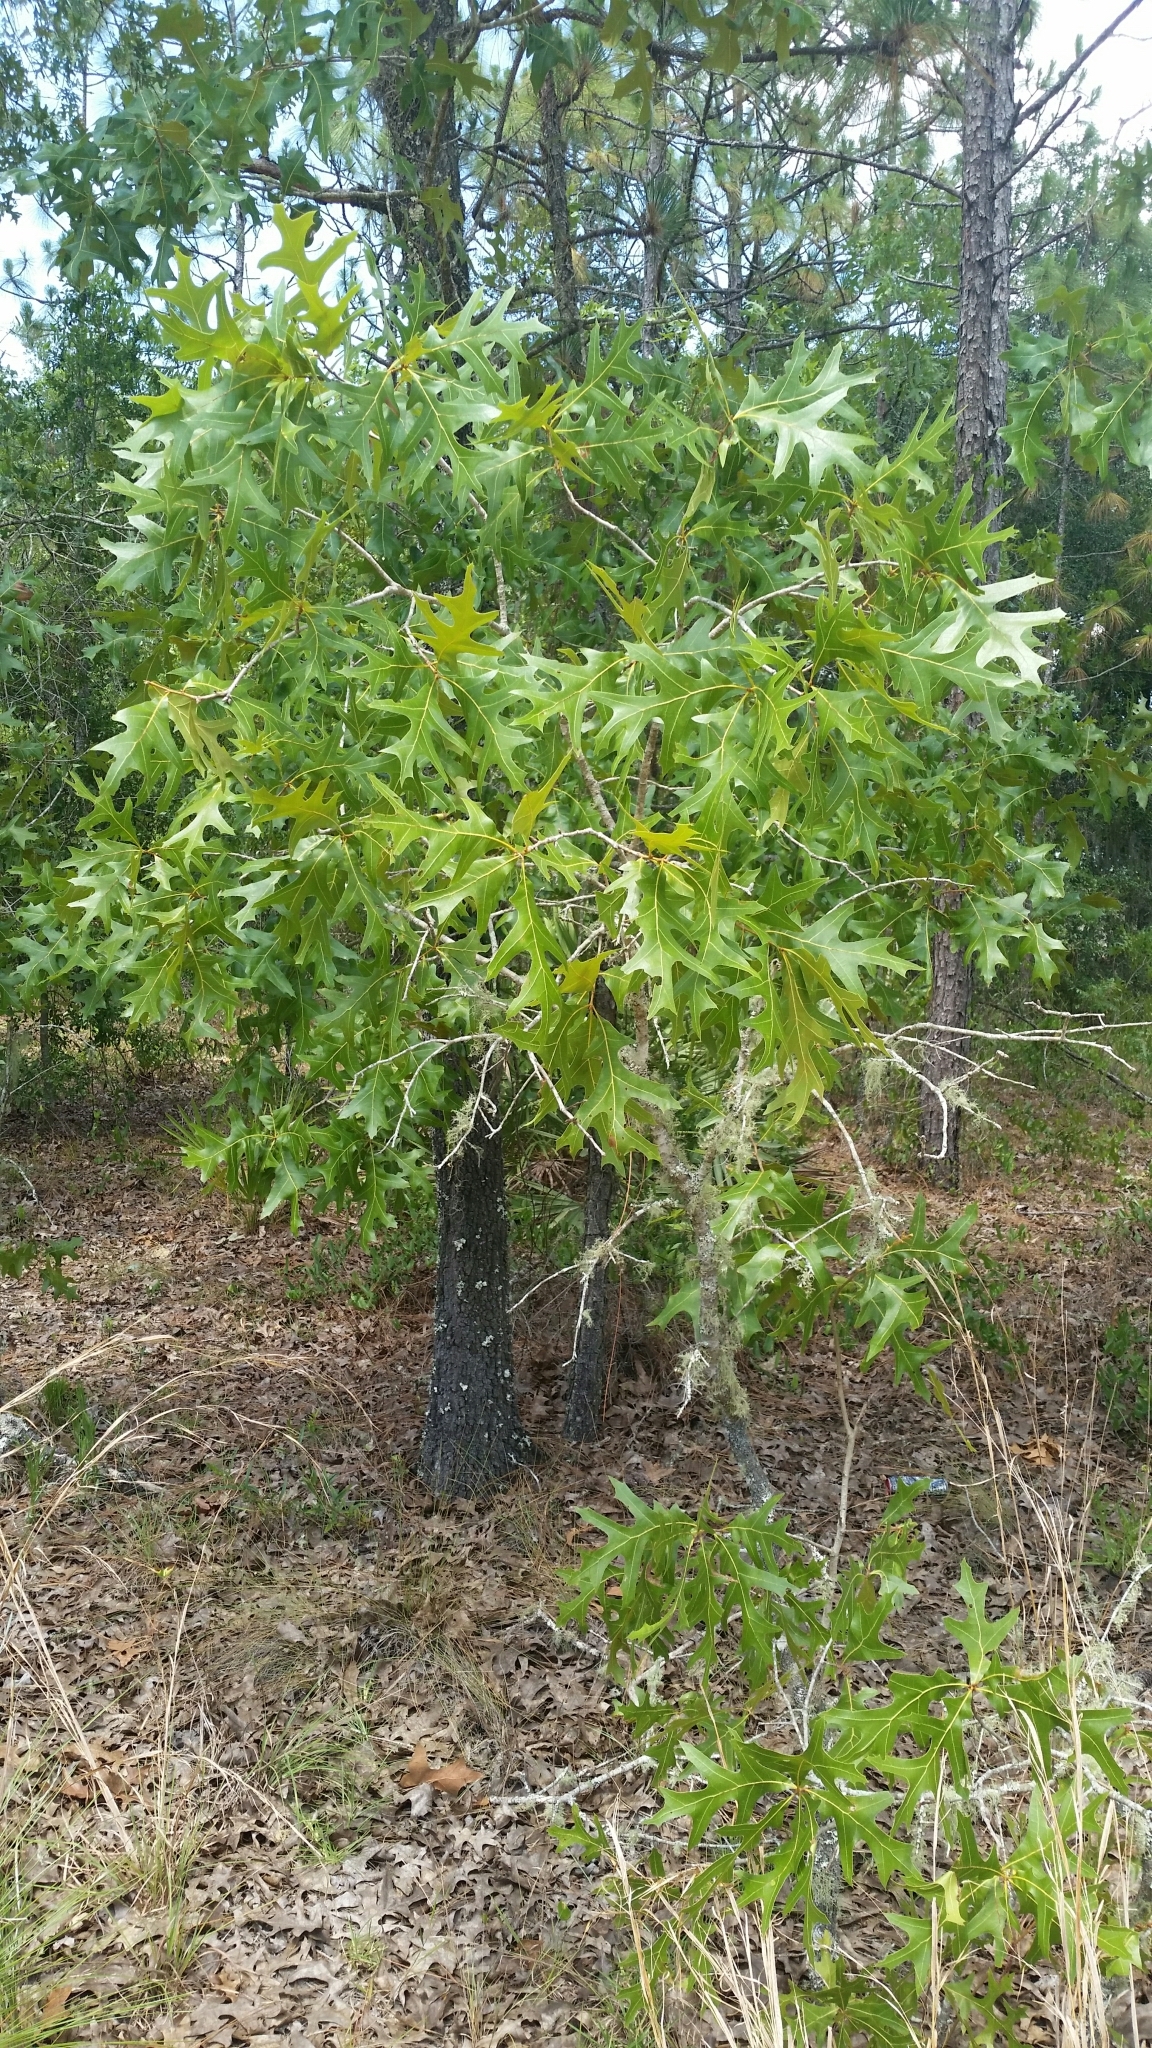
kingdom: Plantae
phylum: Tracheophyta
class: Magnoliopsida
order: Fagales
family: Fagaceae
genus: Quercus
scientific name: Quercus laevis
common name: Turkey oak
